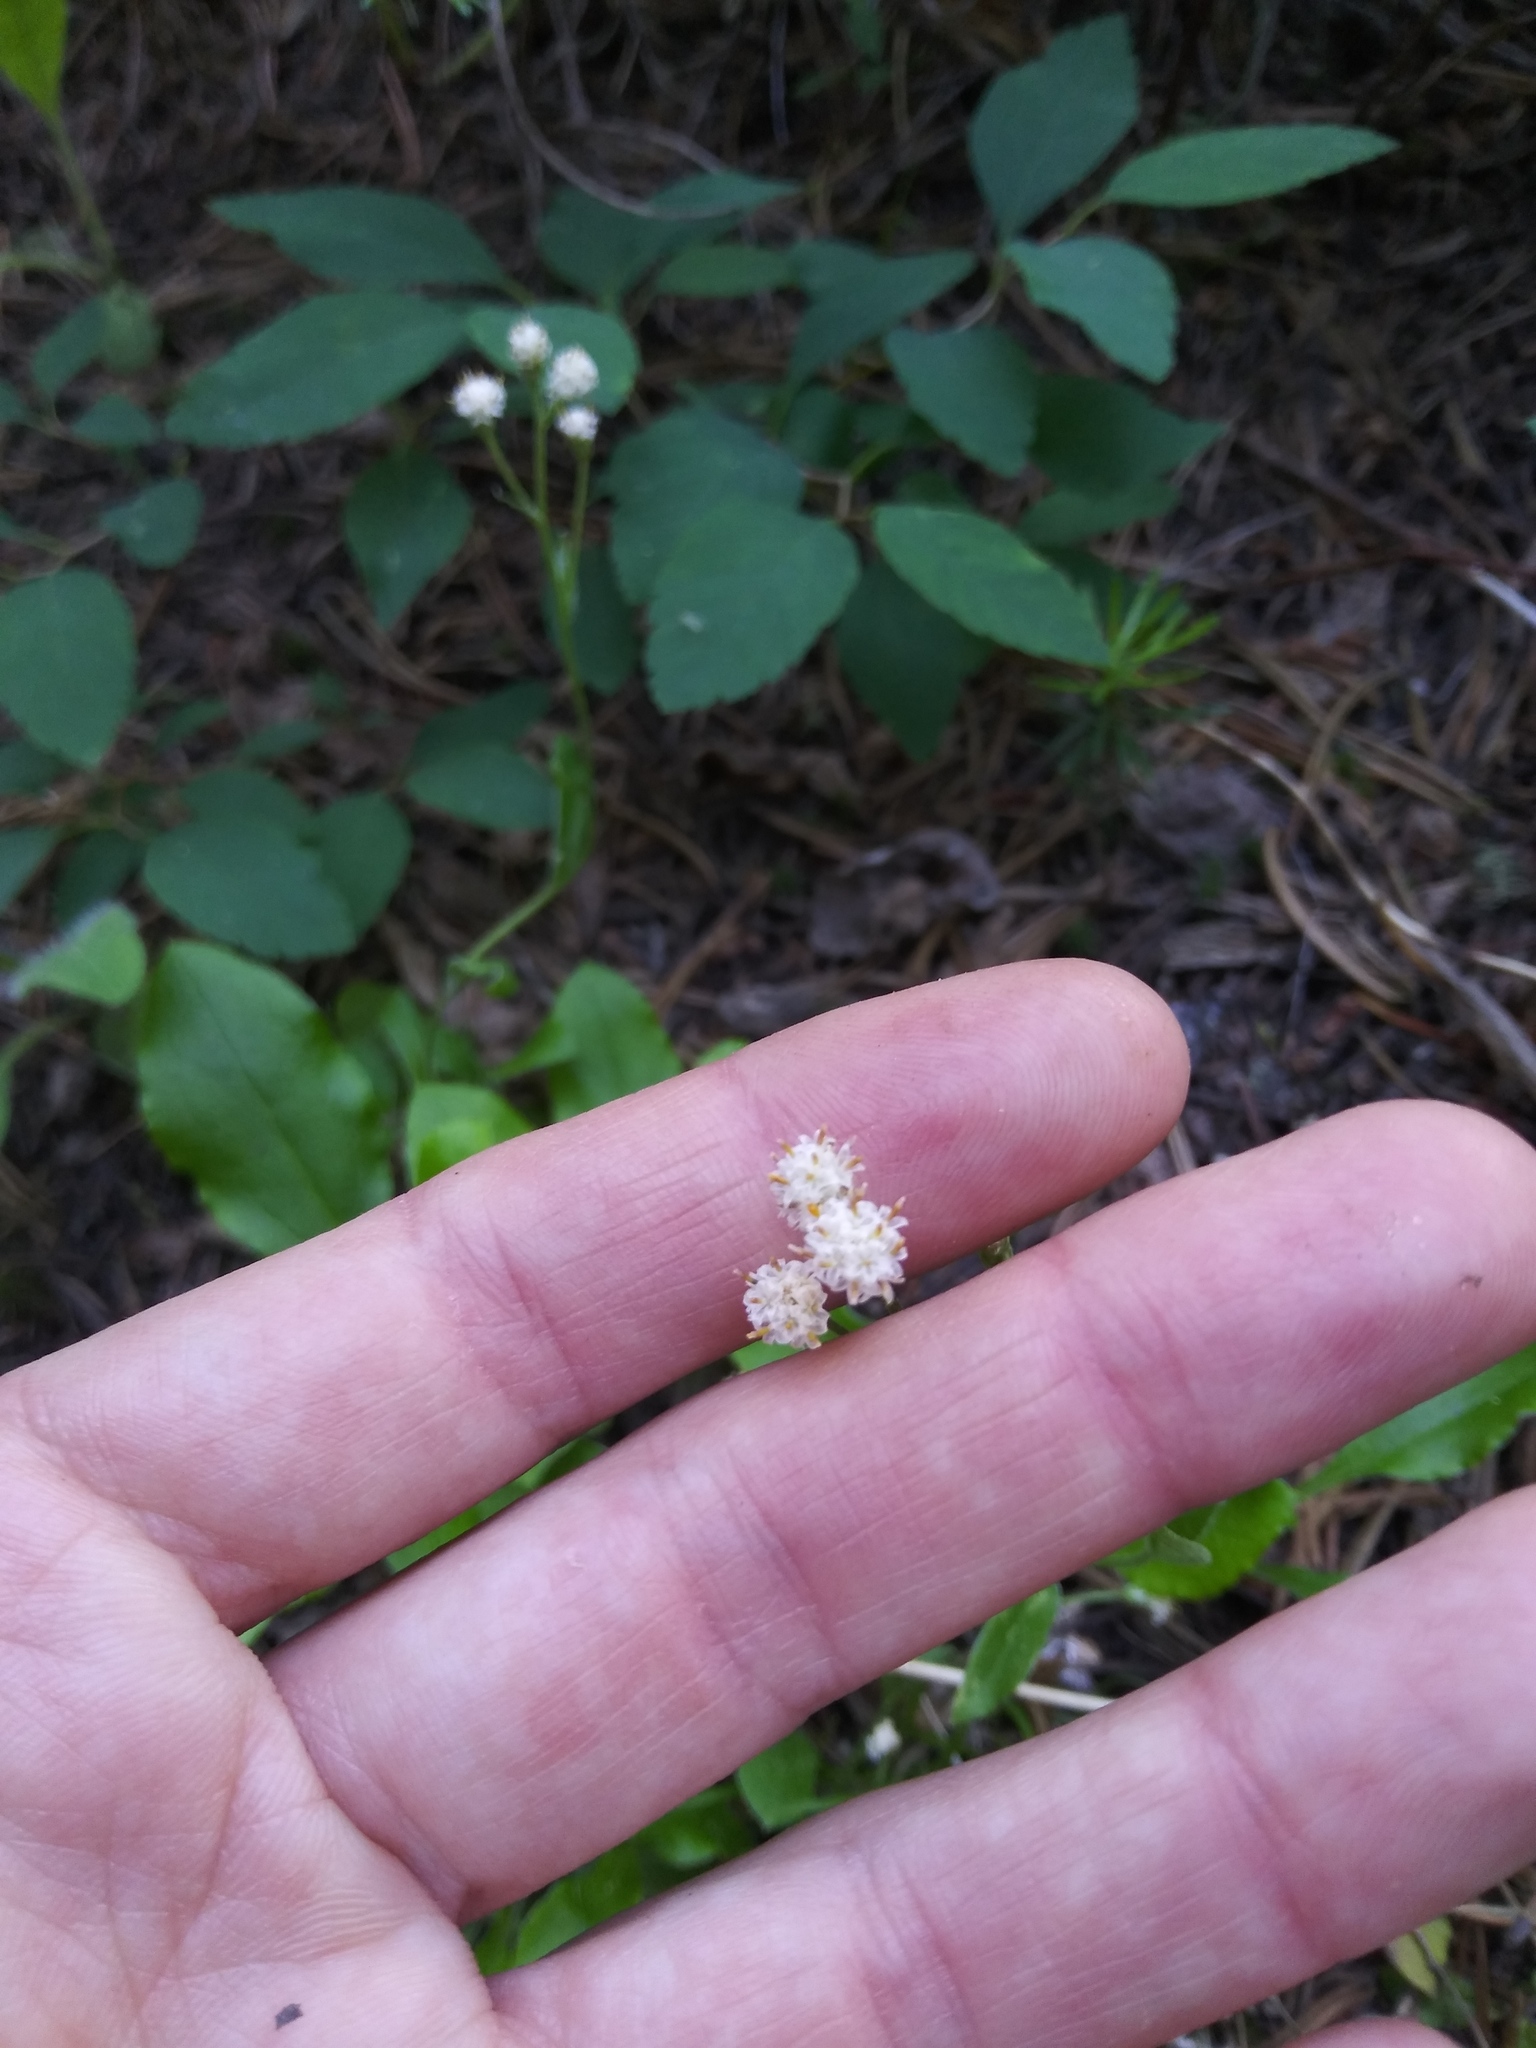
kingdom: Plantae
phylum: Tracheophyta
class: Magnoliopsida
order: Asterales
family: Asteraceae
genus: Antennaria
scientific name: Antennaria racemosa
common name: Racemose pussytoes
